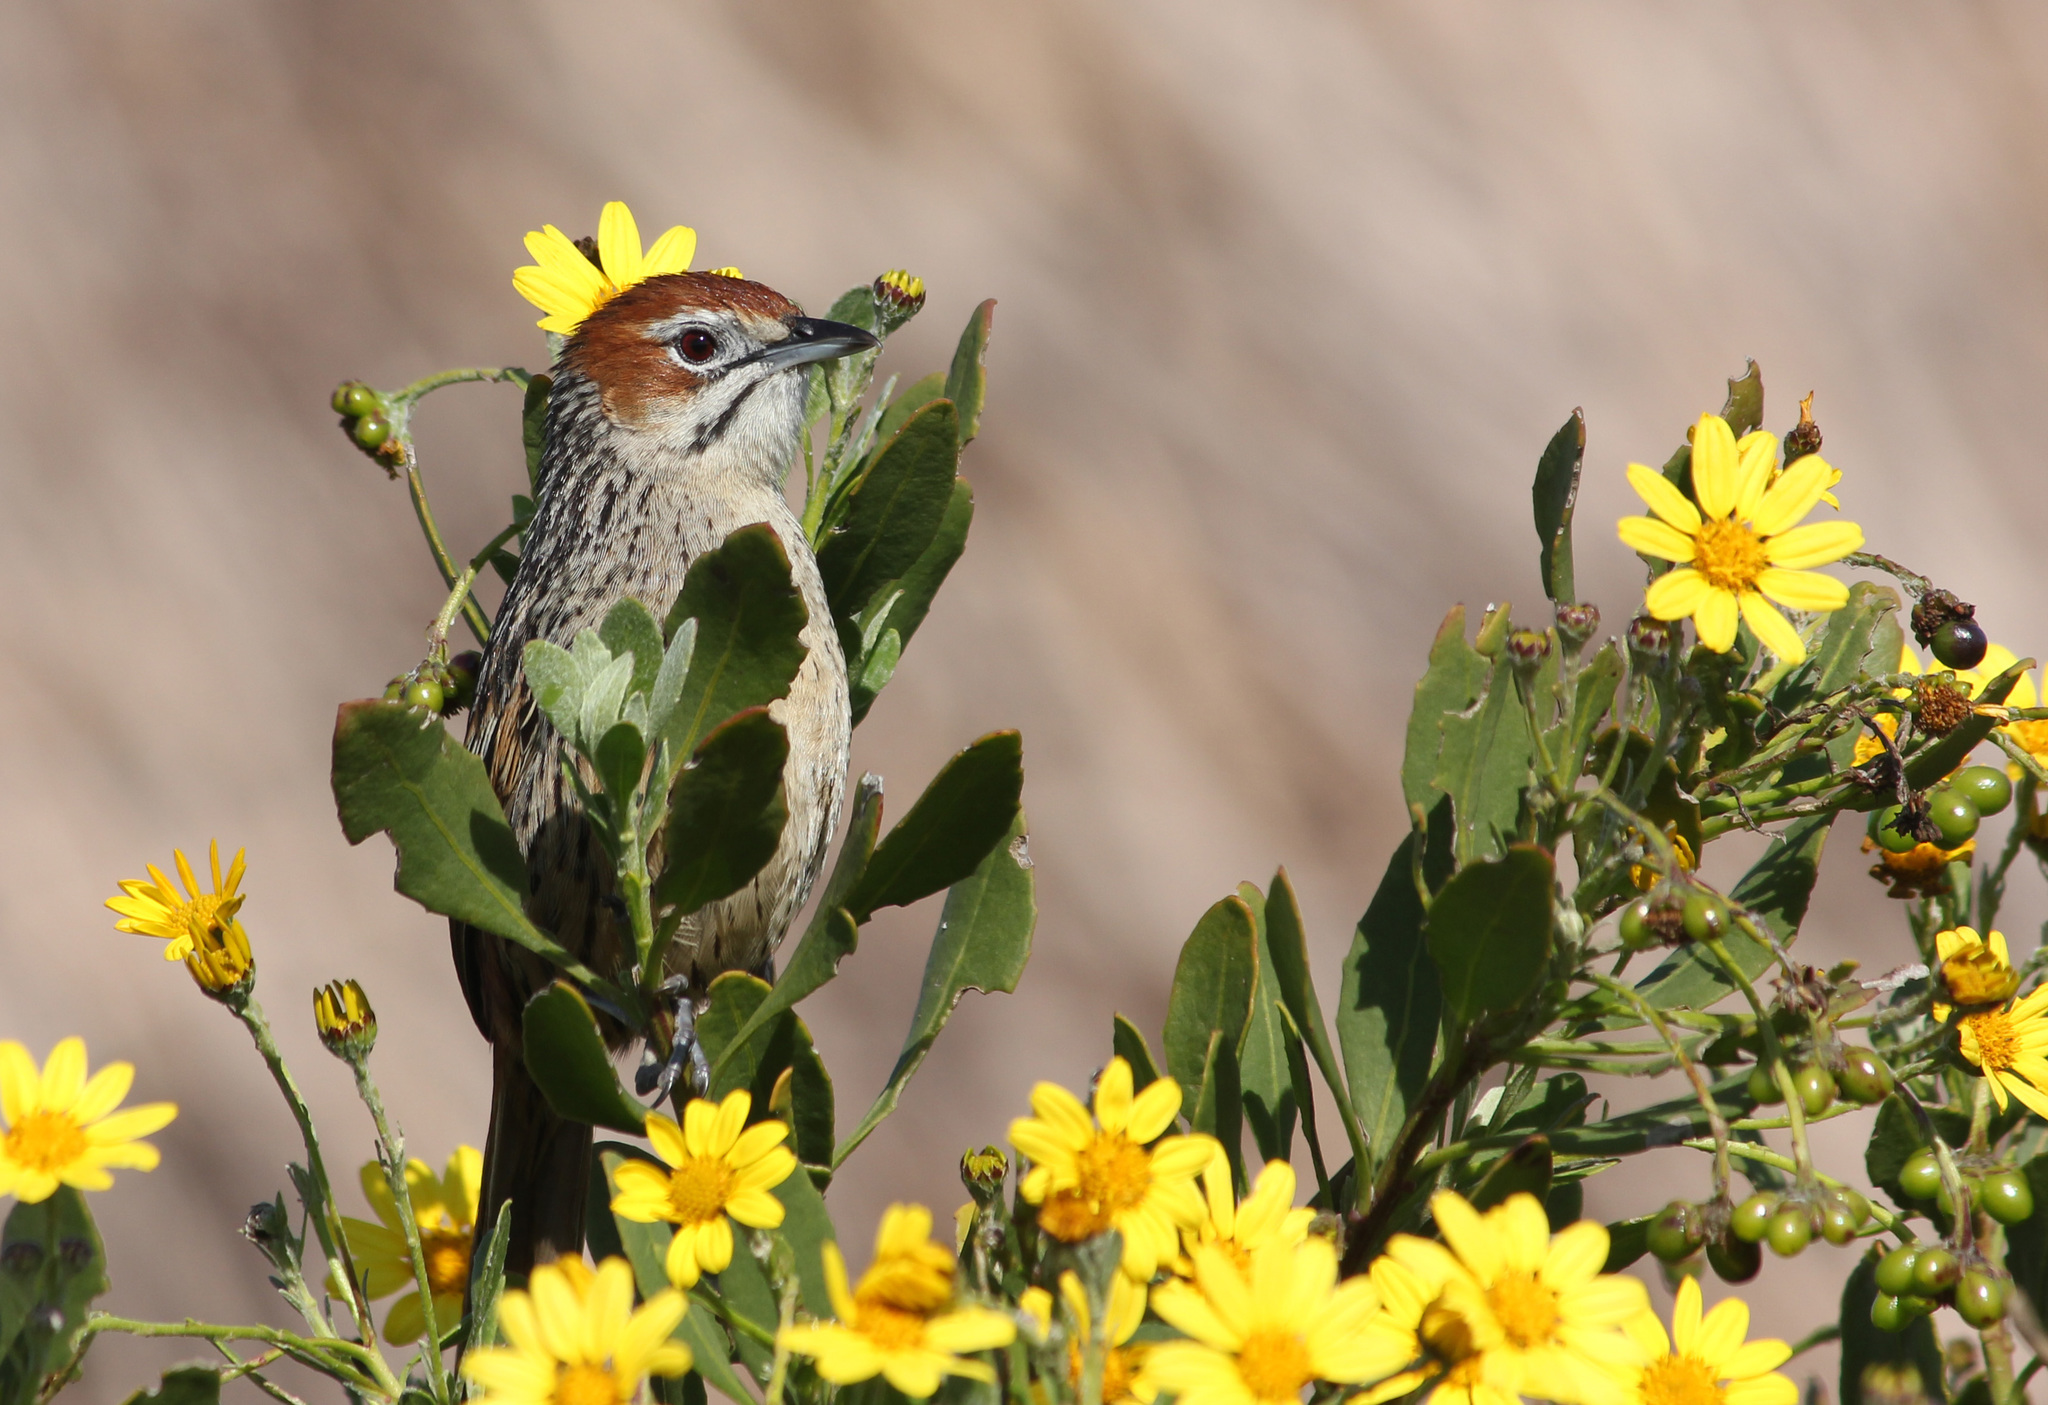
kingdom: Animalia
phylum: Chordata
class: Aves
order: Passeriformes
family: Macrosphenidae
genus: Sphenoeacus
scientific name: Sphenoeacus afer
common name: Cape grassbird
